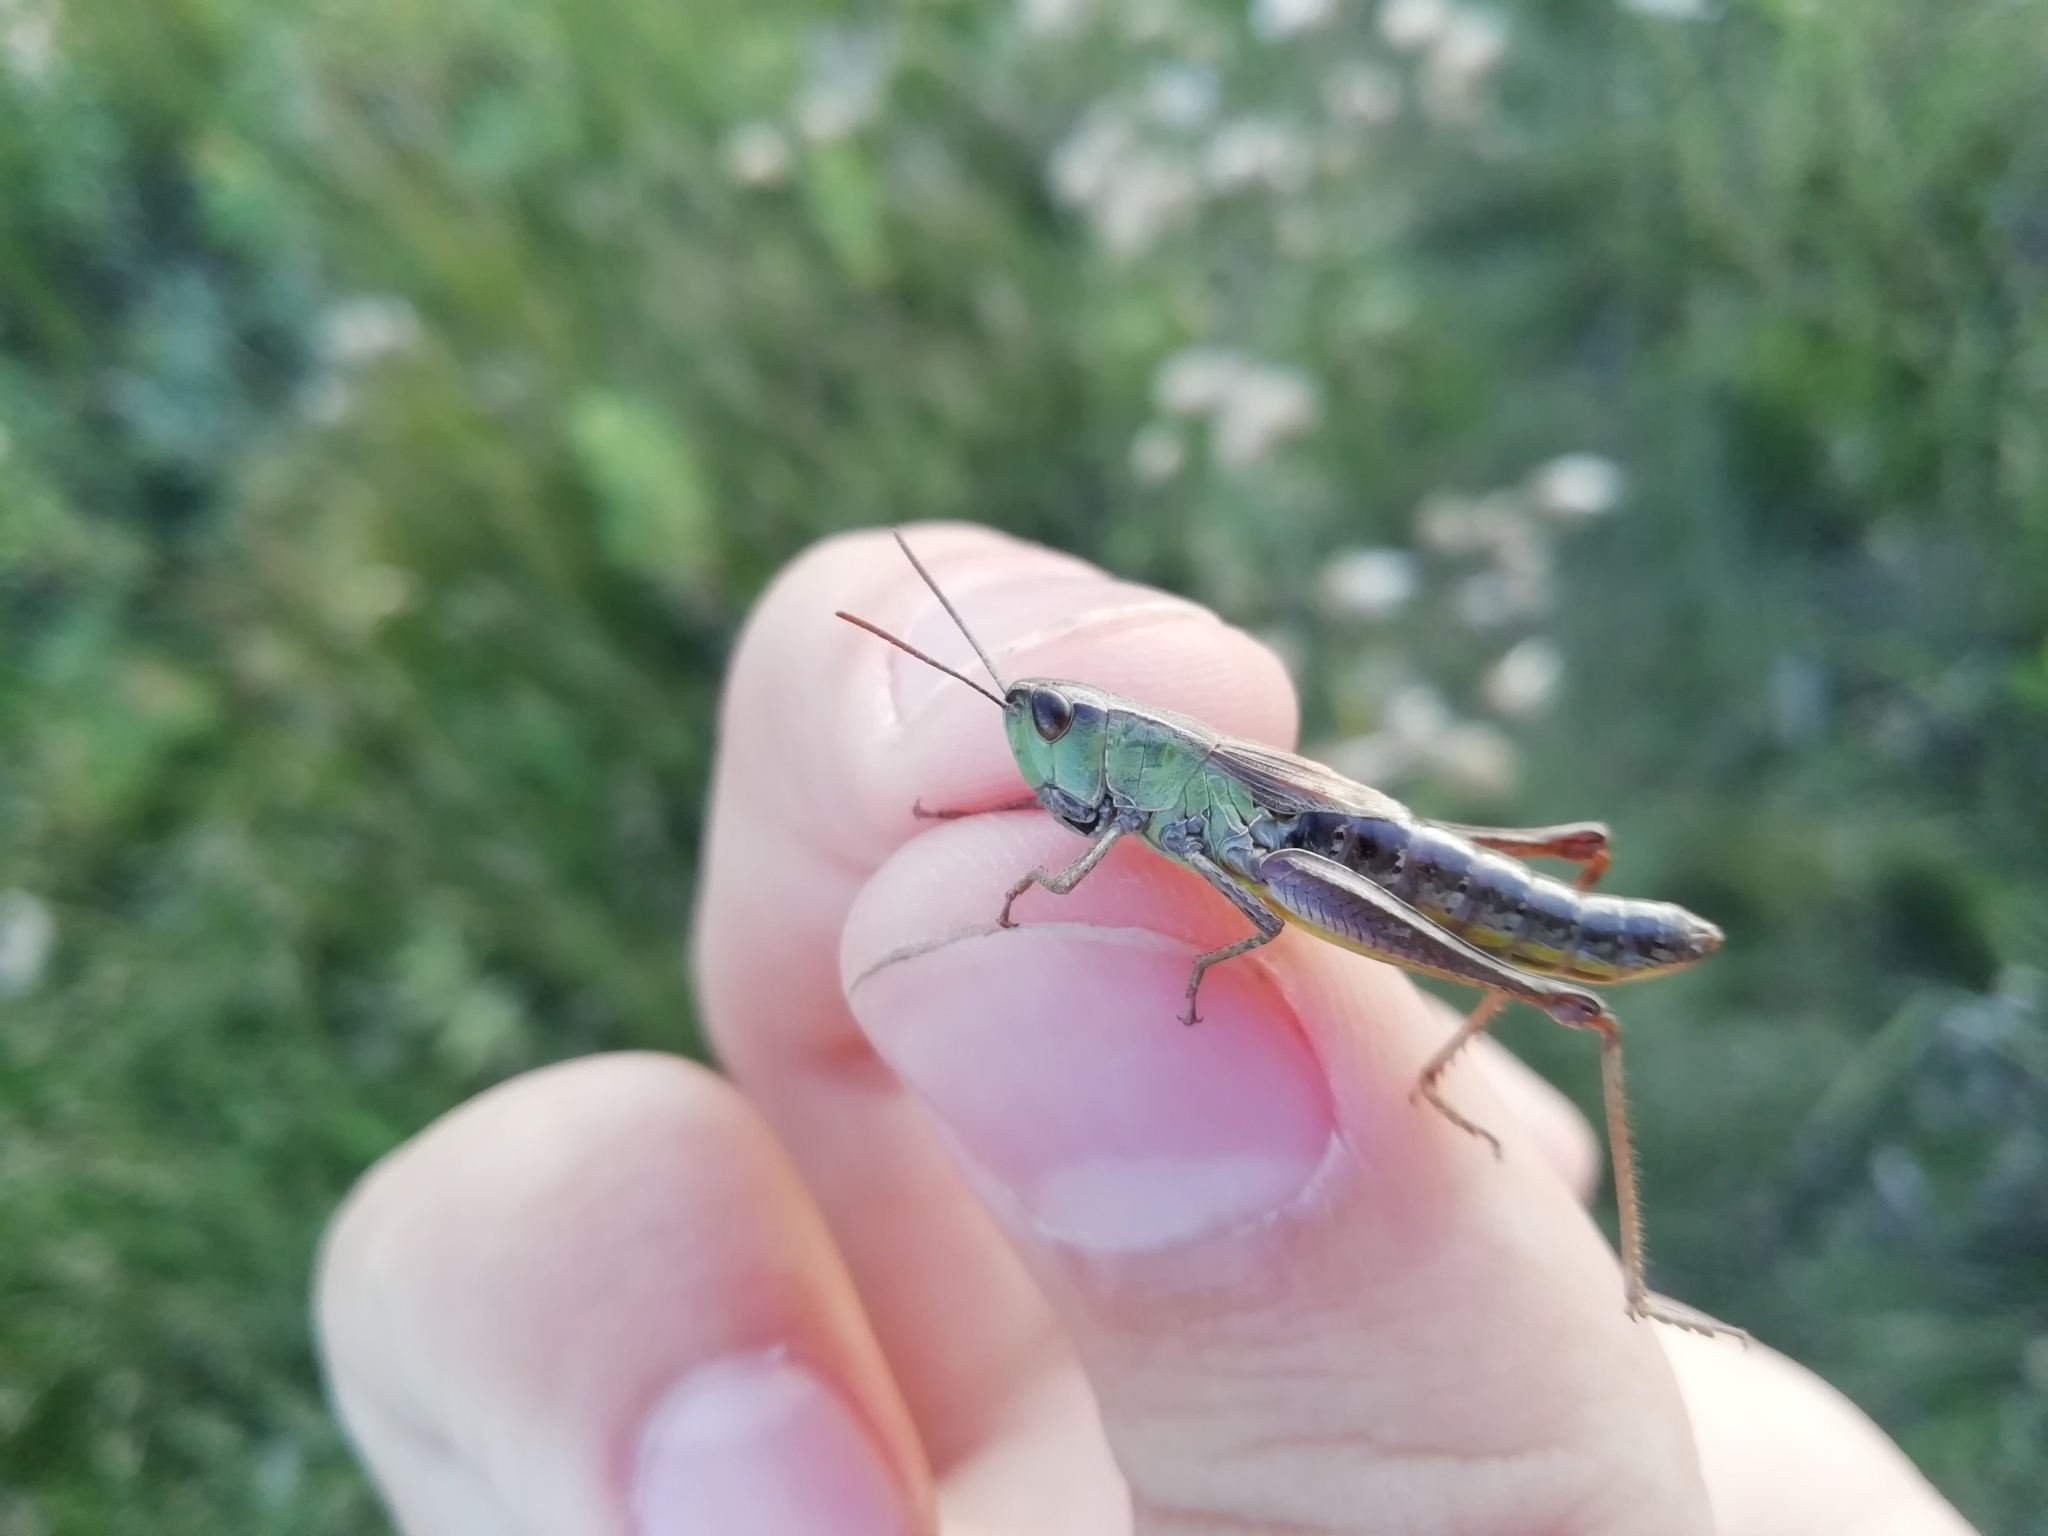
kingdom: Animalia
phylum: Arthropoda
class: Insecta
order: Orthoptera
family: Acrididae
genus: Pseudochorthippus
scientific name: Pseudochorthippus parallelus
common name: Meadow grasshopper
